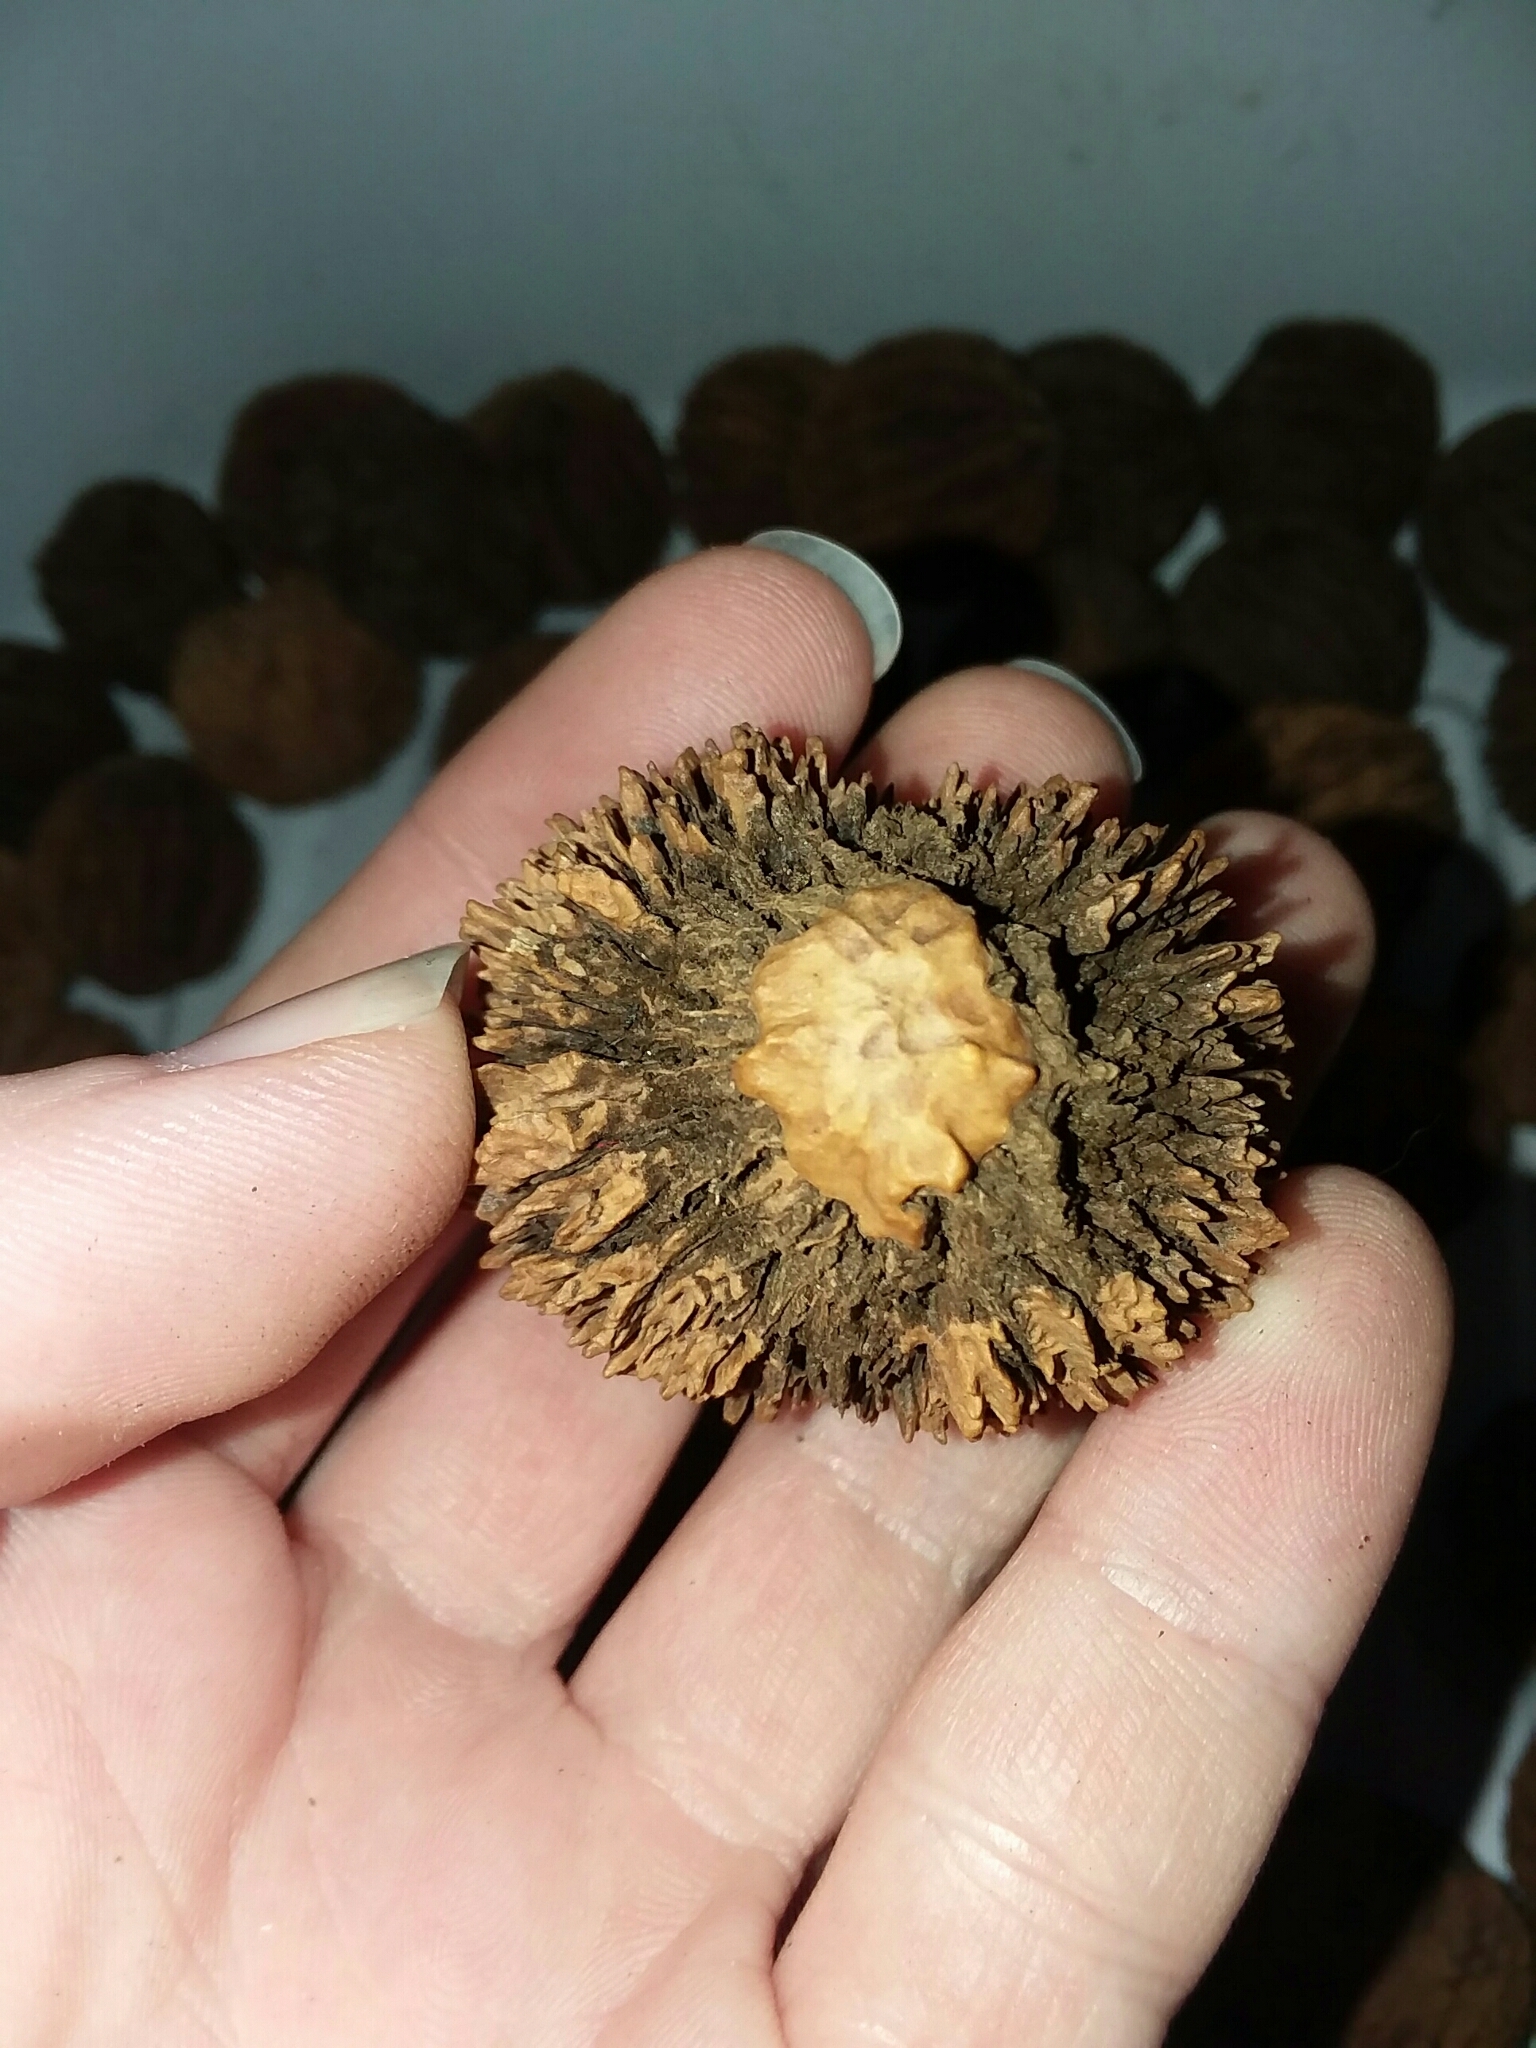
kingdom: Plantae
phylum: Tracheophyta
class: Magnoliopsida
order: Fagales
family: Juglandaceae
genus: Juglans
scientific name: Juglans nigra
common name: Black walnut
